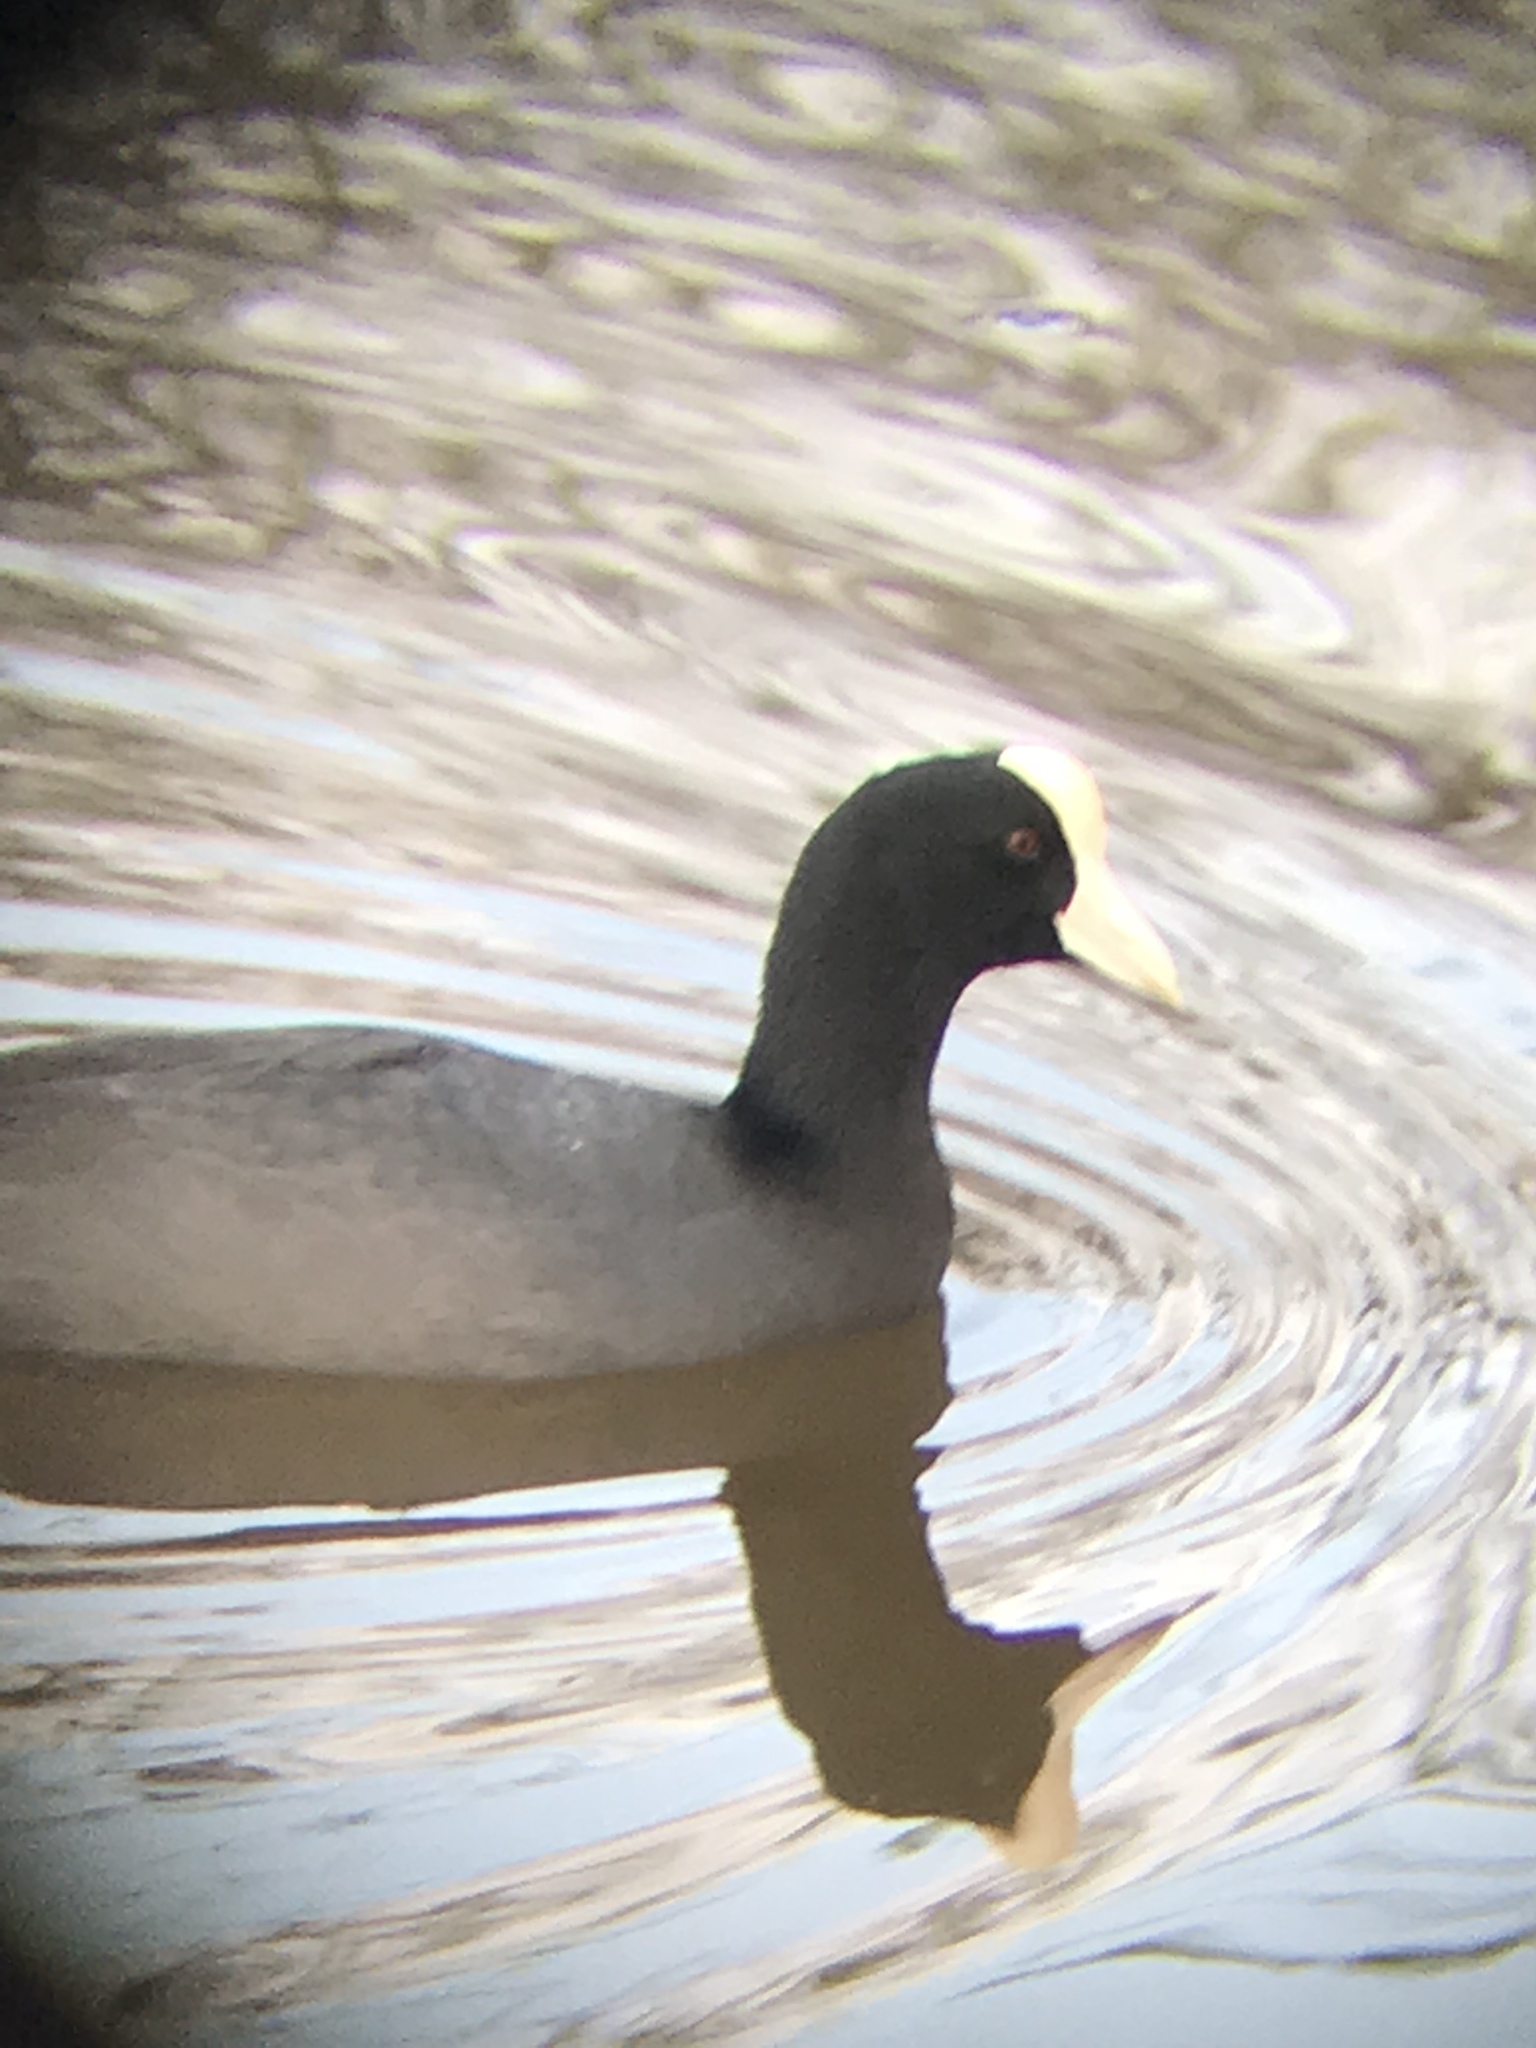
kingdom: Animalia
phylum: Chordata
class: Aves
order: Gruiformes
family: Rallidae
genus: Fulica
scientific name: Fulica alai
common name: Hawaiian coot
